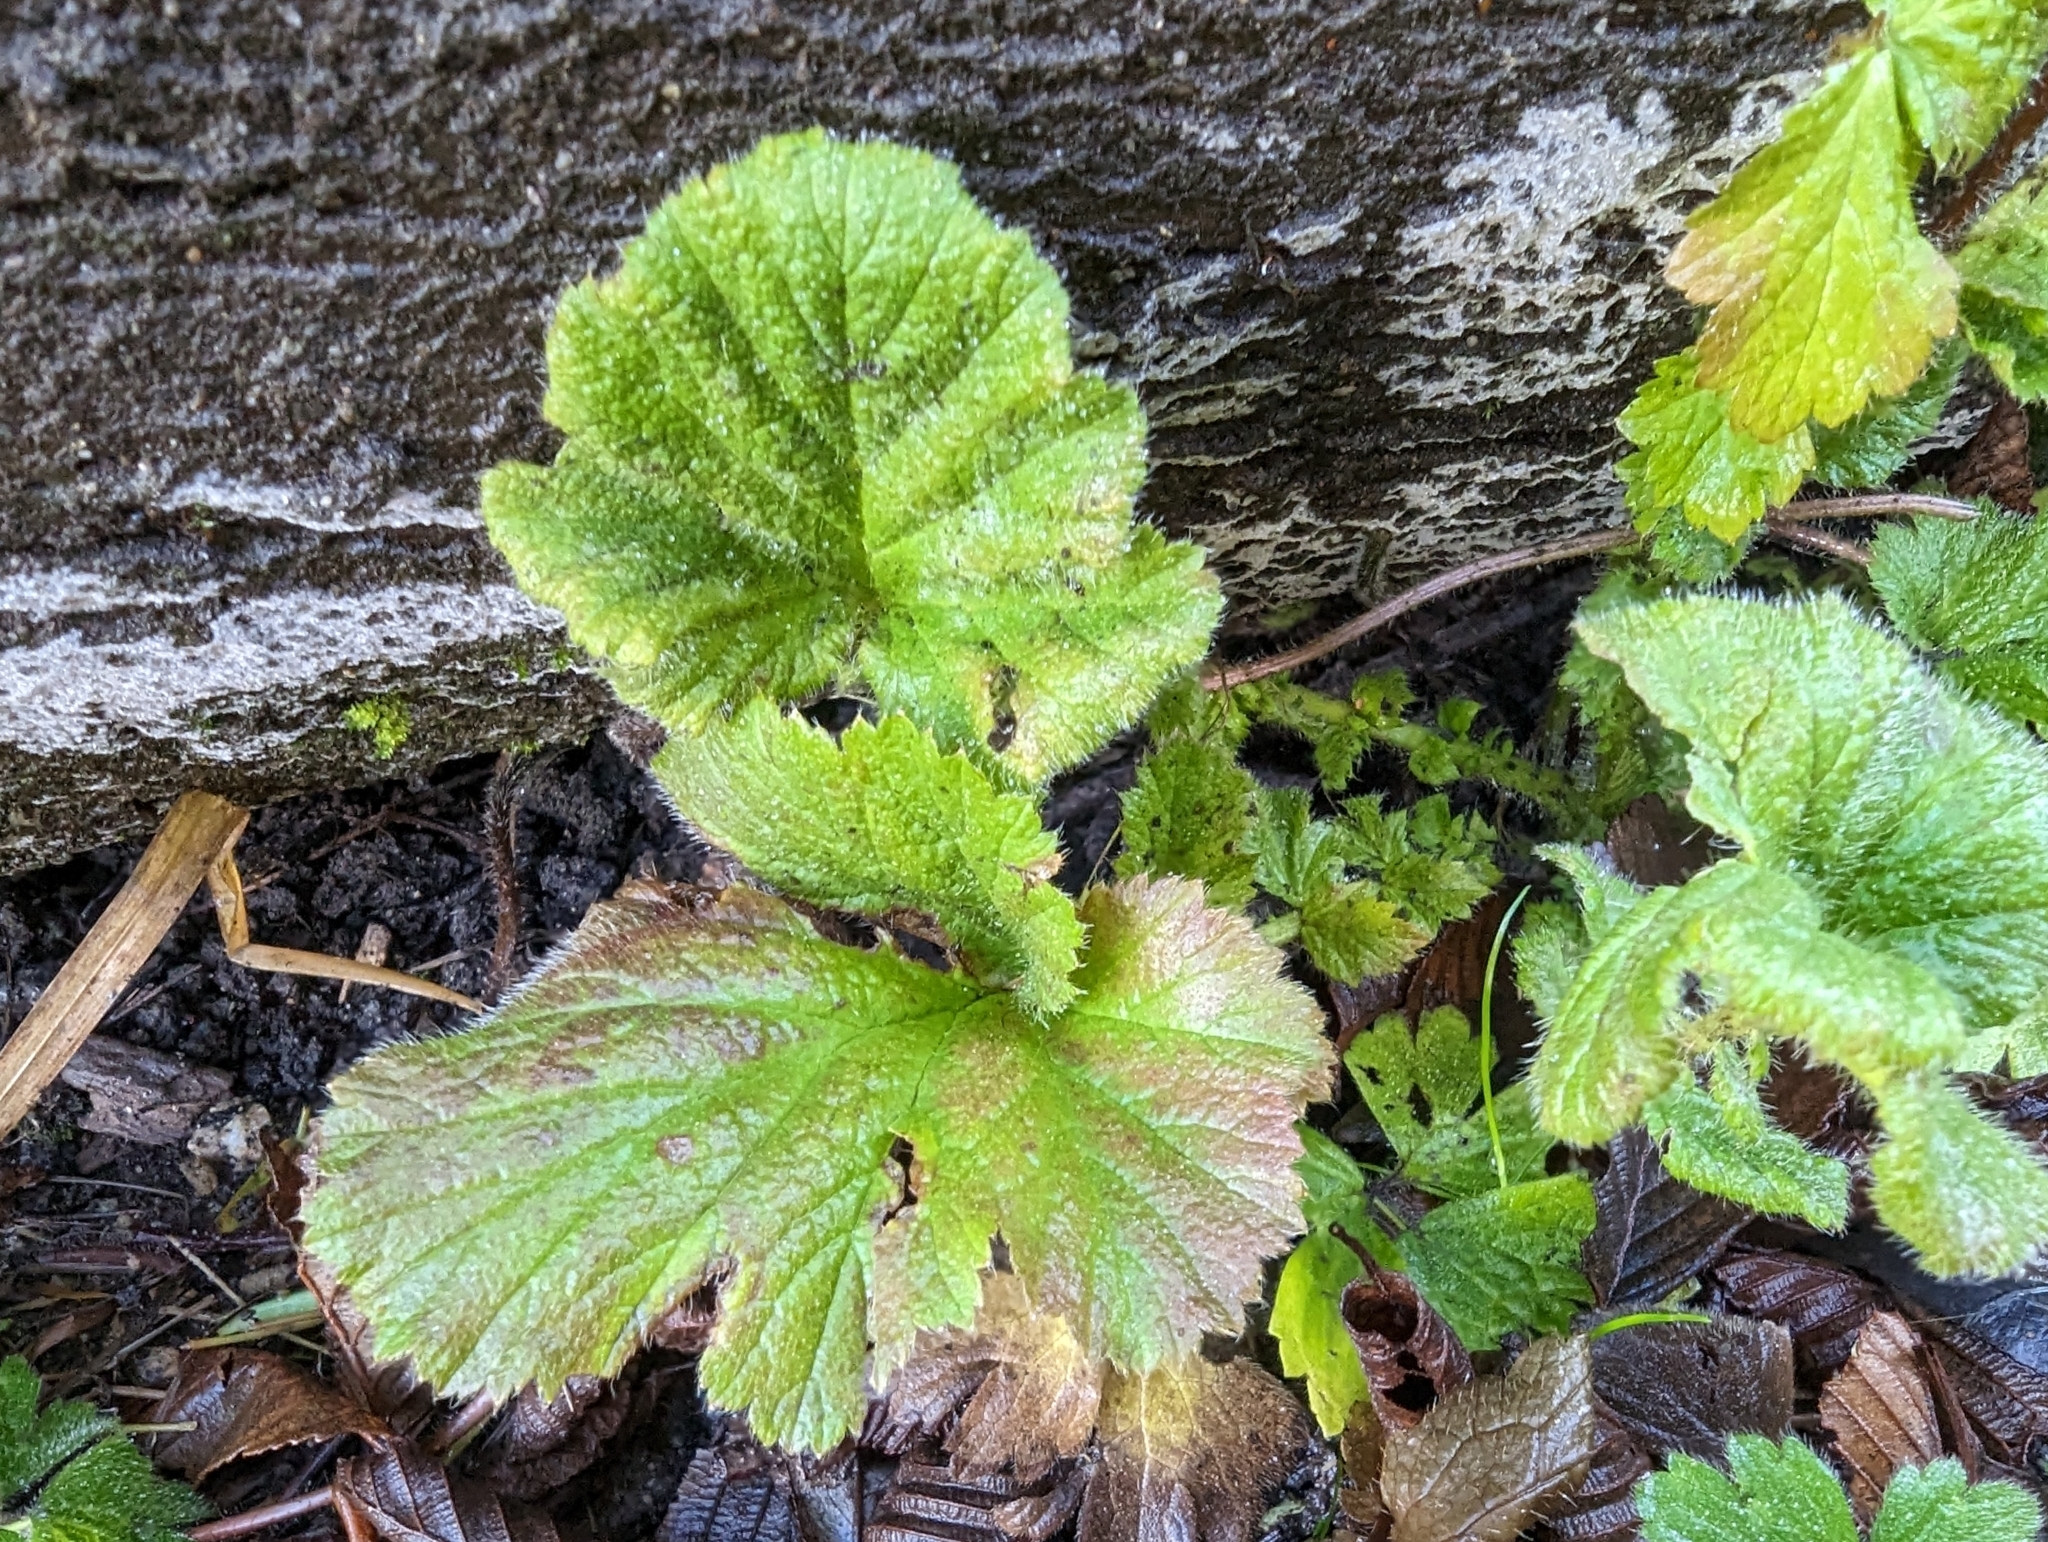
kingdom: Plantae
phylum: Tracheophyta
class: Magnoliopsida
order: Rosales
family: Rosaceae
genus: Geum
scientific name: Geum macrophyllum
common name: Large-leaved avens
